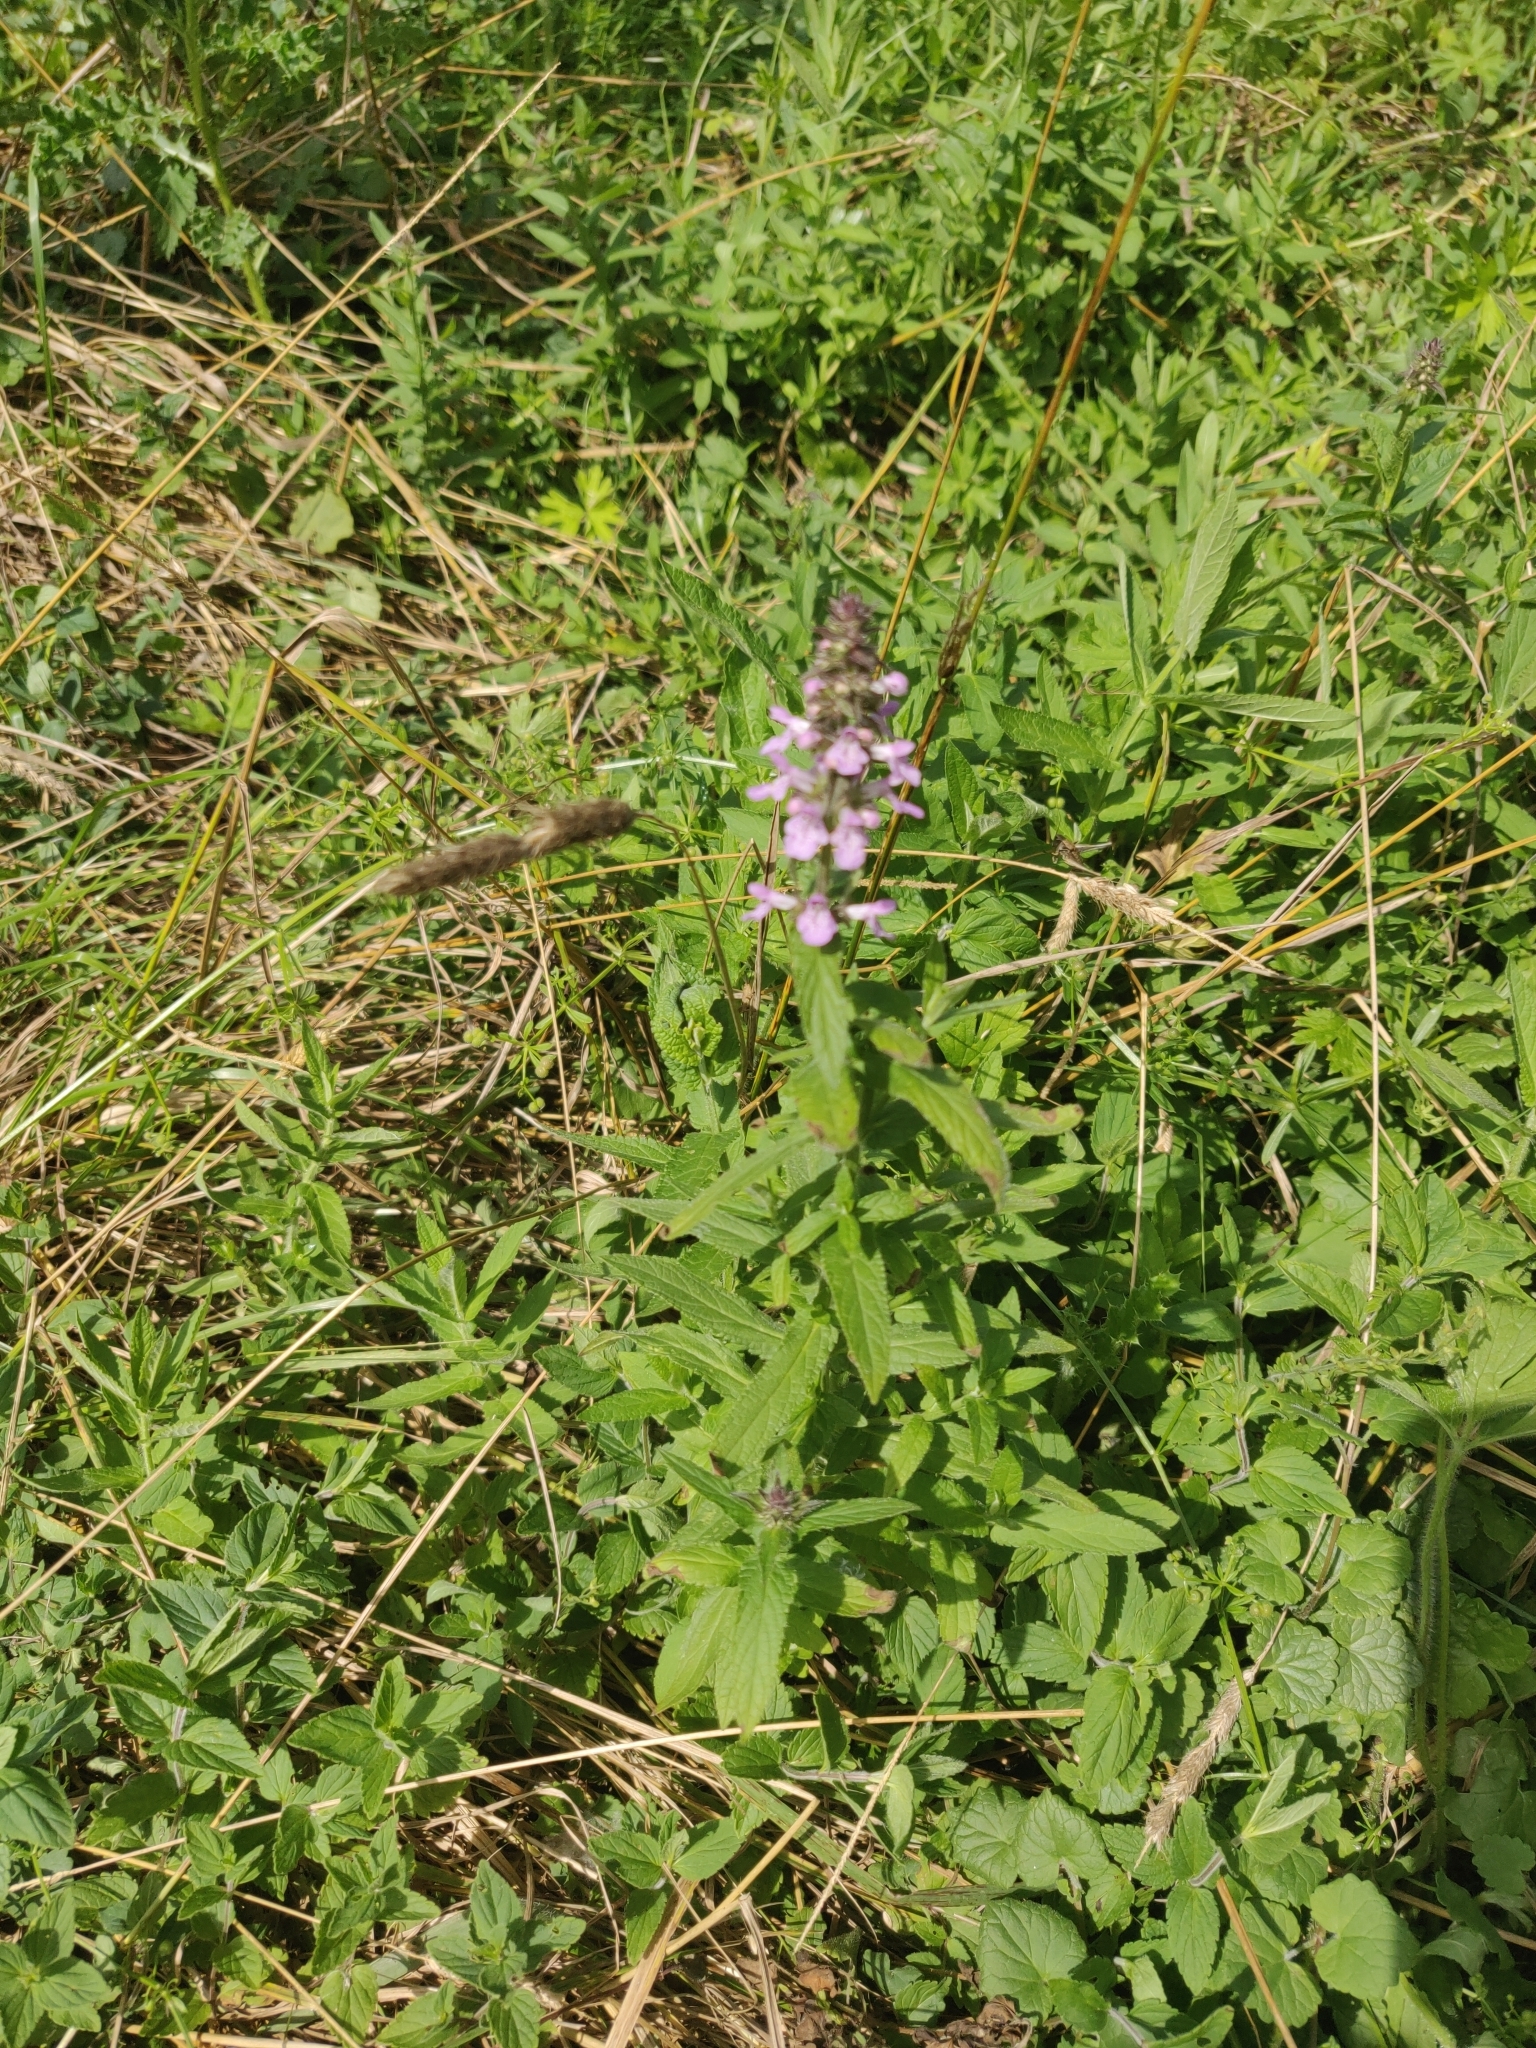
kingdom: Plantae
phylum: Tracheophyta
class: Magnoliopsida
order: Lamiales
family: Lamiaceae
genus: Stachys
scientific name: Stachys palustris
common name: Marsh woundwort
